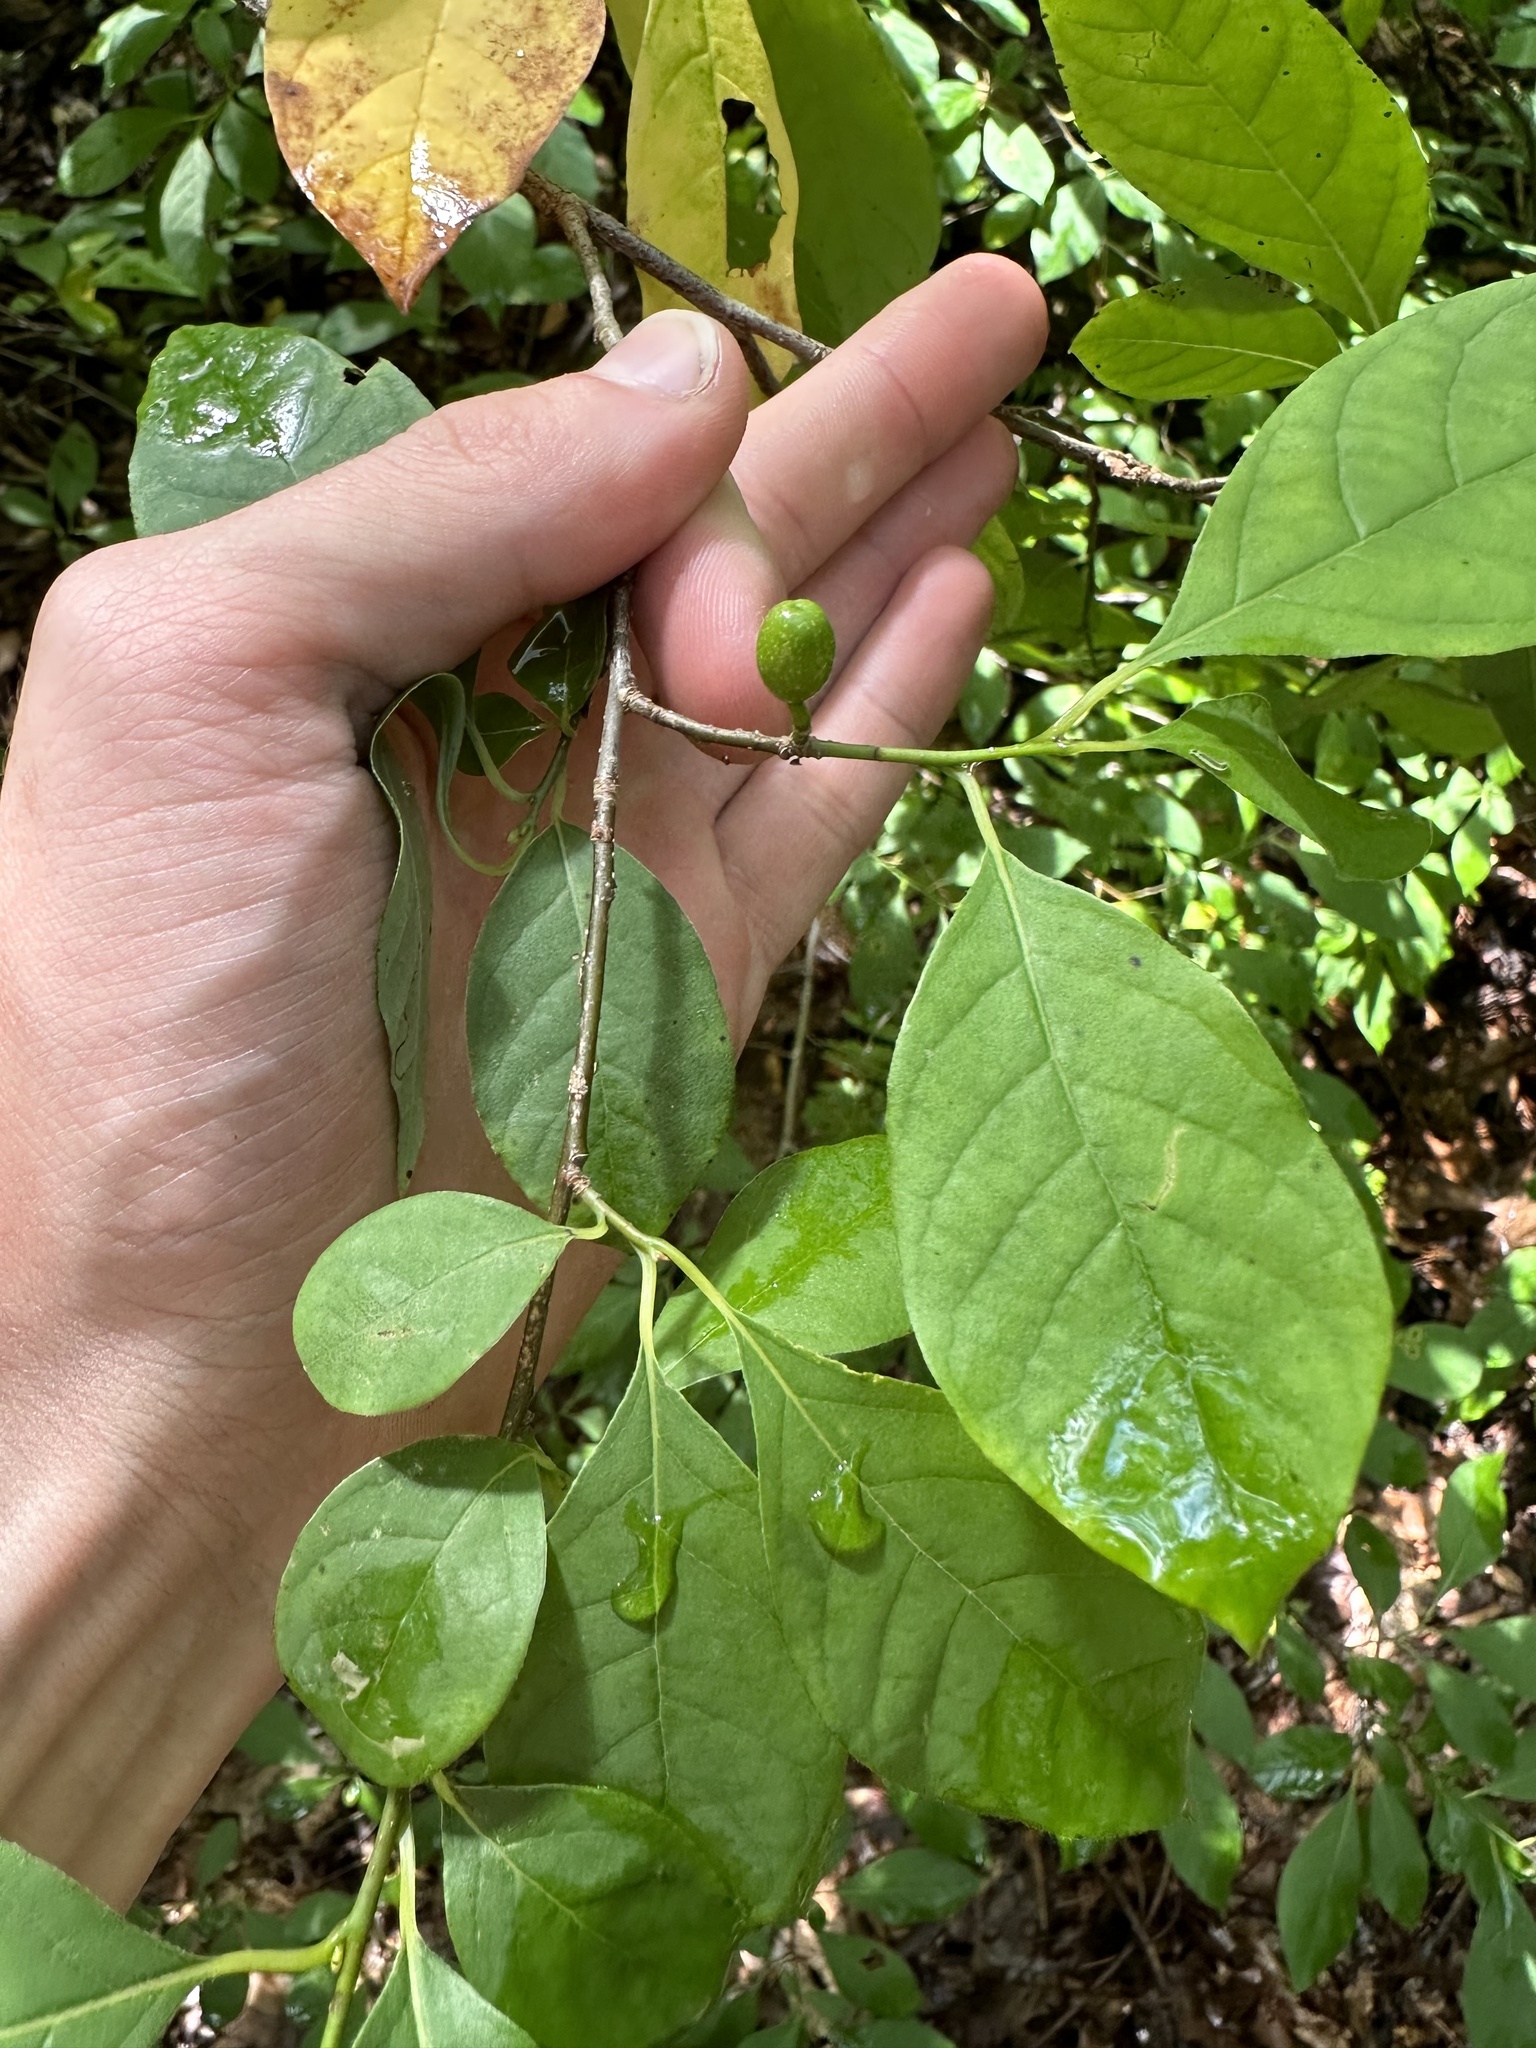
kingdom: Plantae
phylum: Tracheophyta
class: Magnoliopsida
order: Laurales
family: Lauraceae
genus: Lindera
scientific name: Lindera benzoin
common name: Spicebush
